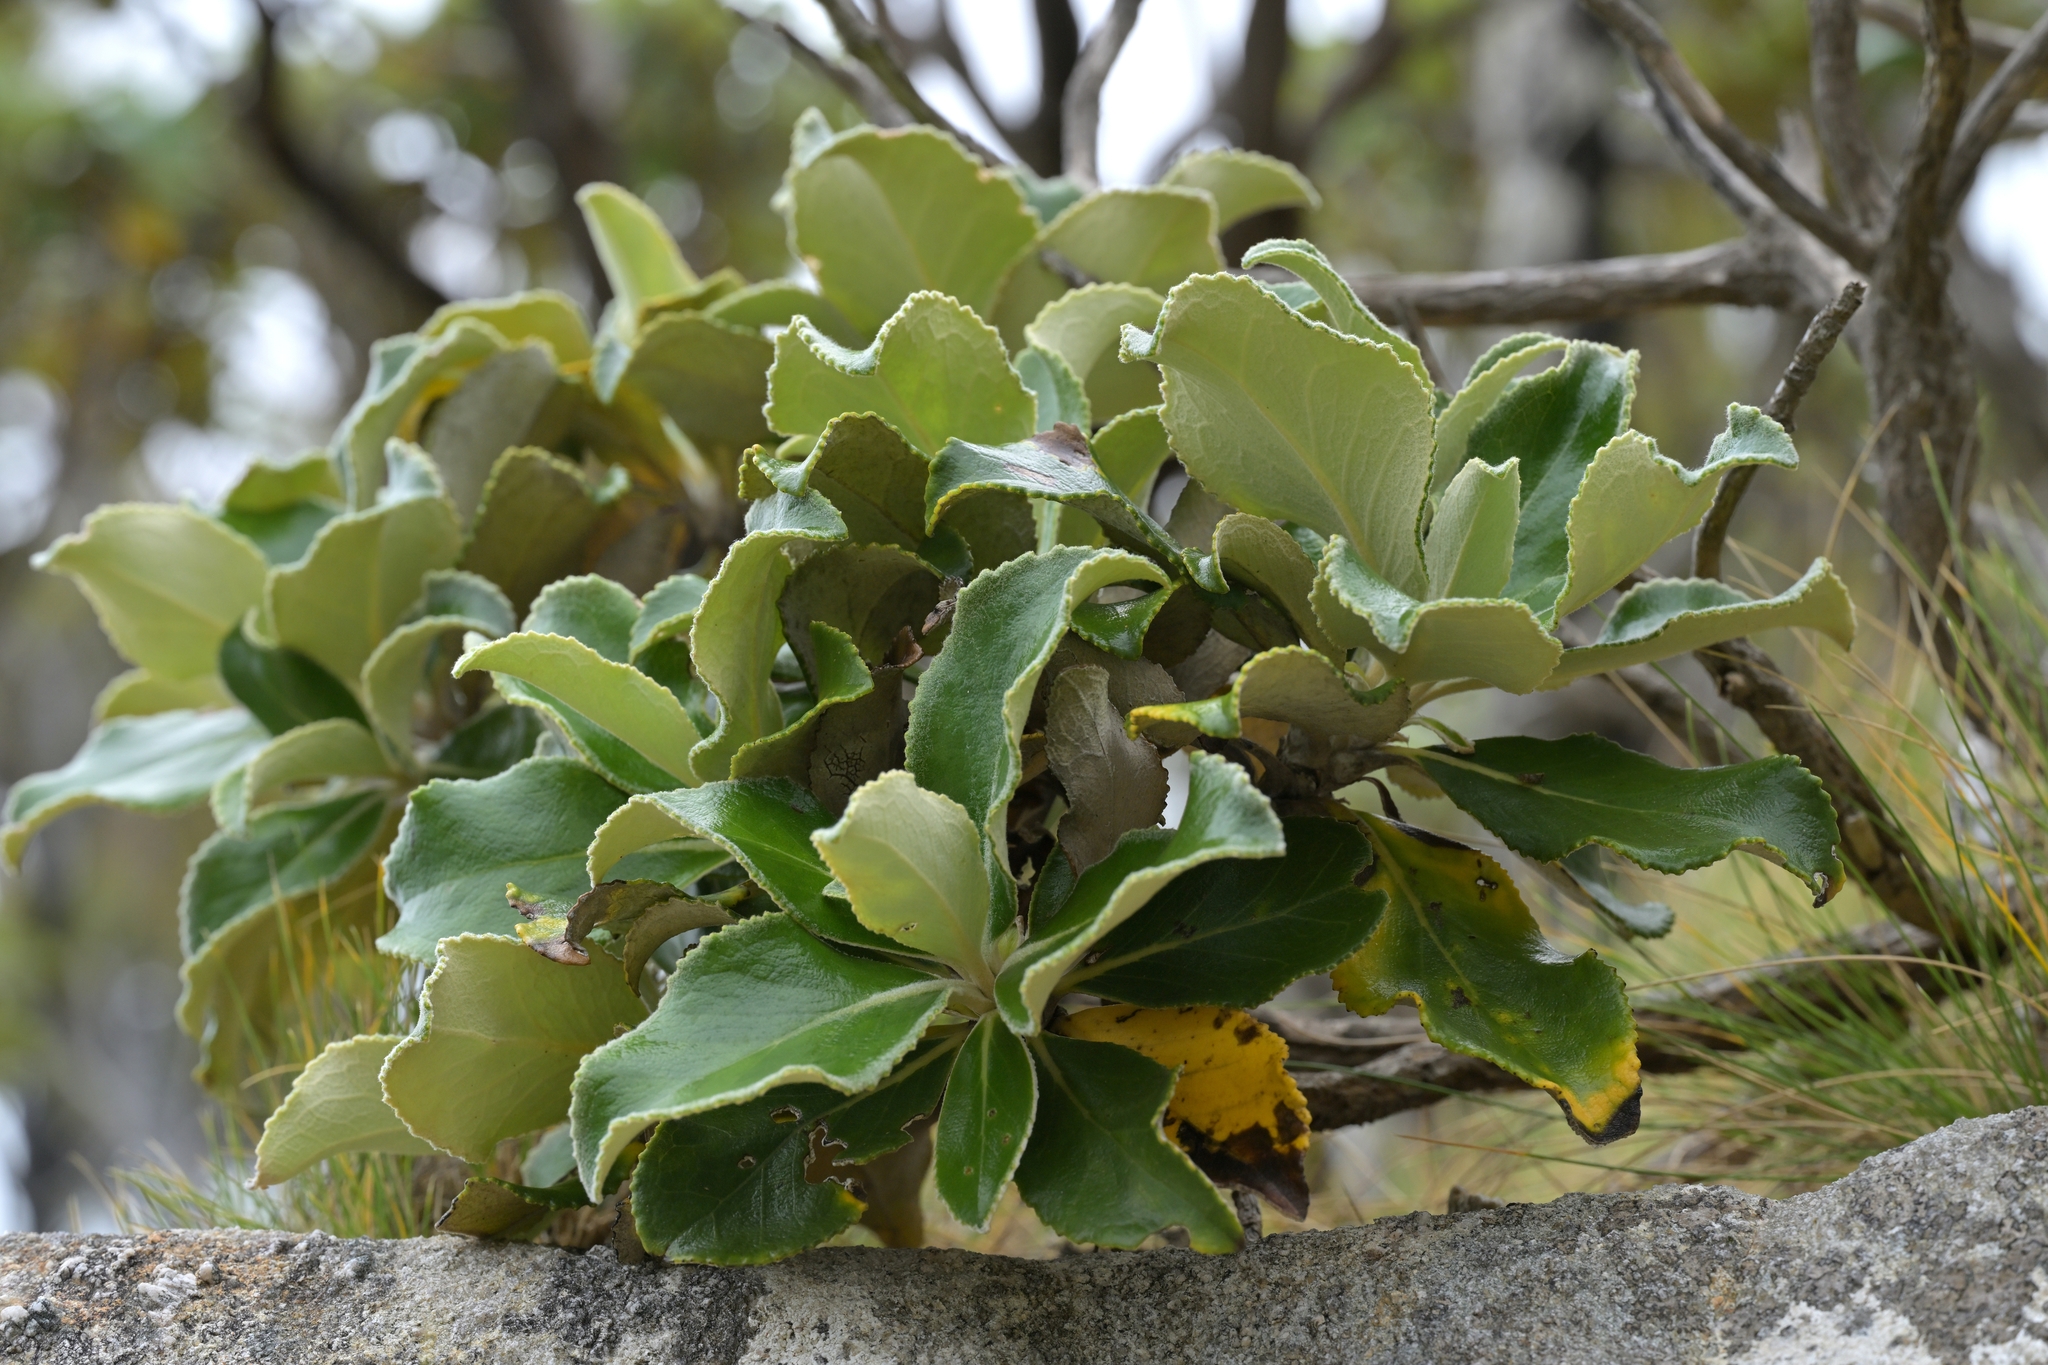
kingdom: Plantae
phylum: Tracheophyta
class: Magnoliopsida
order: Asterales
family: Asteraceae
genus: Macrolearia
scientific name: Macrolearia colensoi
